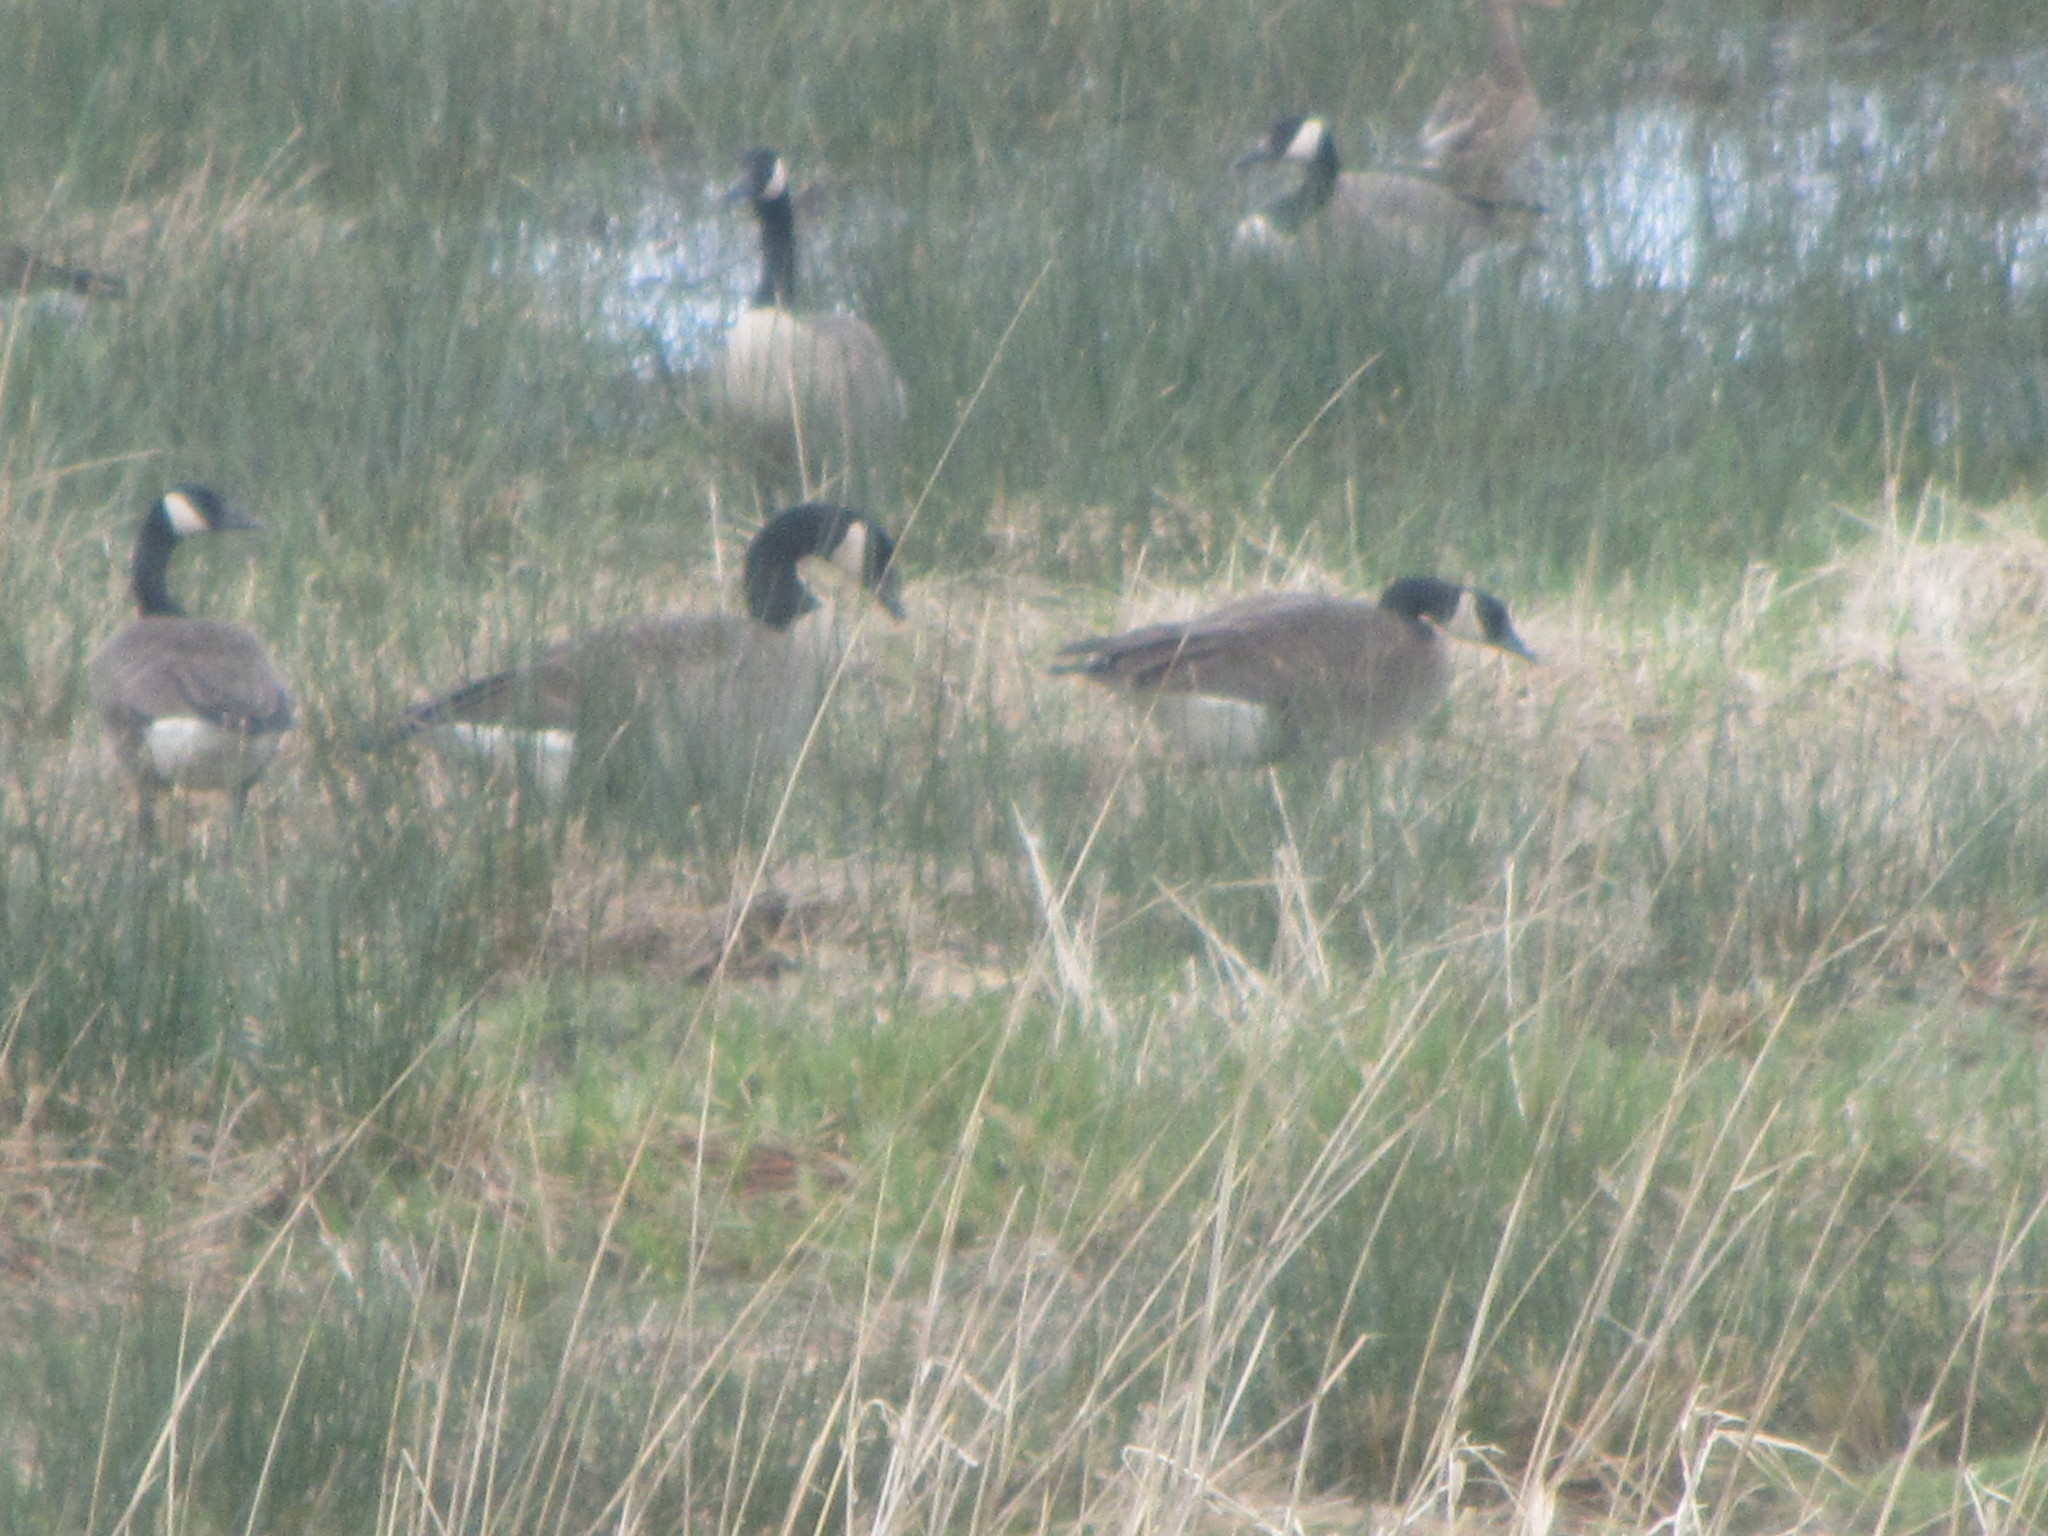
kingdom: Animalia
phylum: Chordata
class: Aves
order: Anseriformes
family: Anatidae
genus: Branta
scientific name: Branta canadensis
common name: Canada goose
